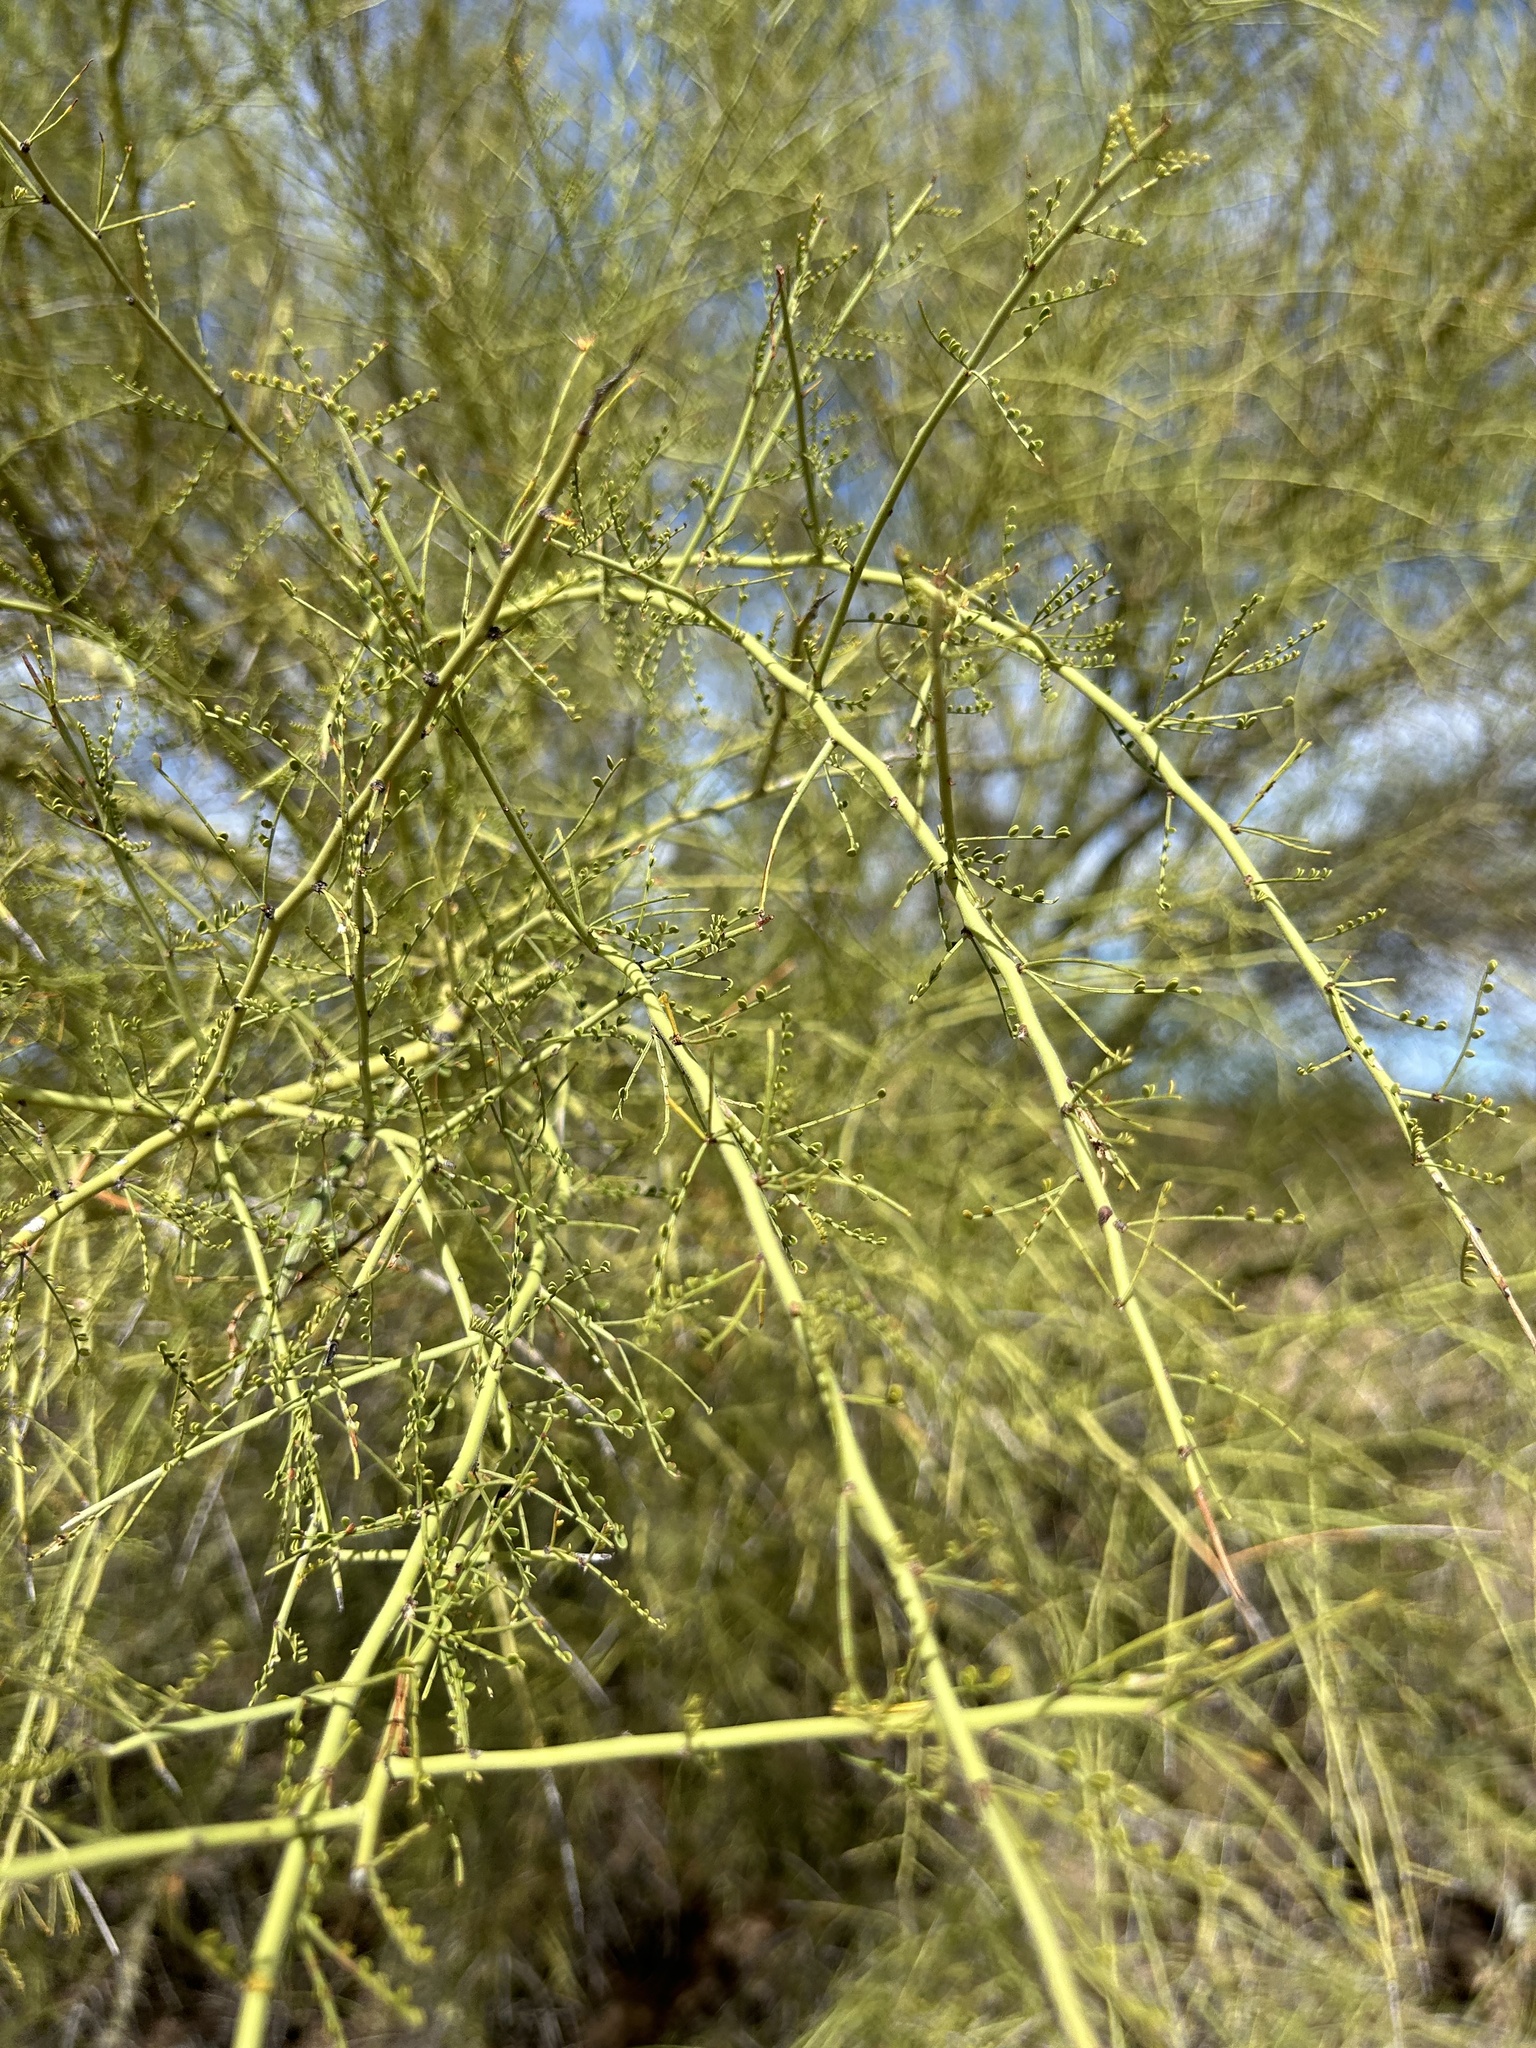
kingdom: Plantae
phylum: Tracheophyta
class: Magnoliopsida
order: Fabales
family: Fabaceae
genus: Parkinsonia
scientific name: Parkinsonia microphylla
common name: Yellow paloverde
